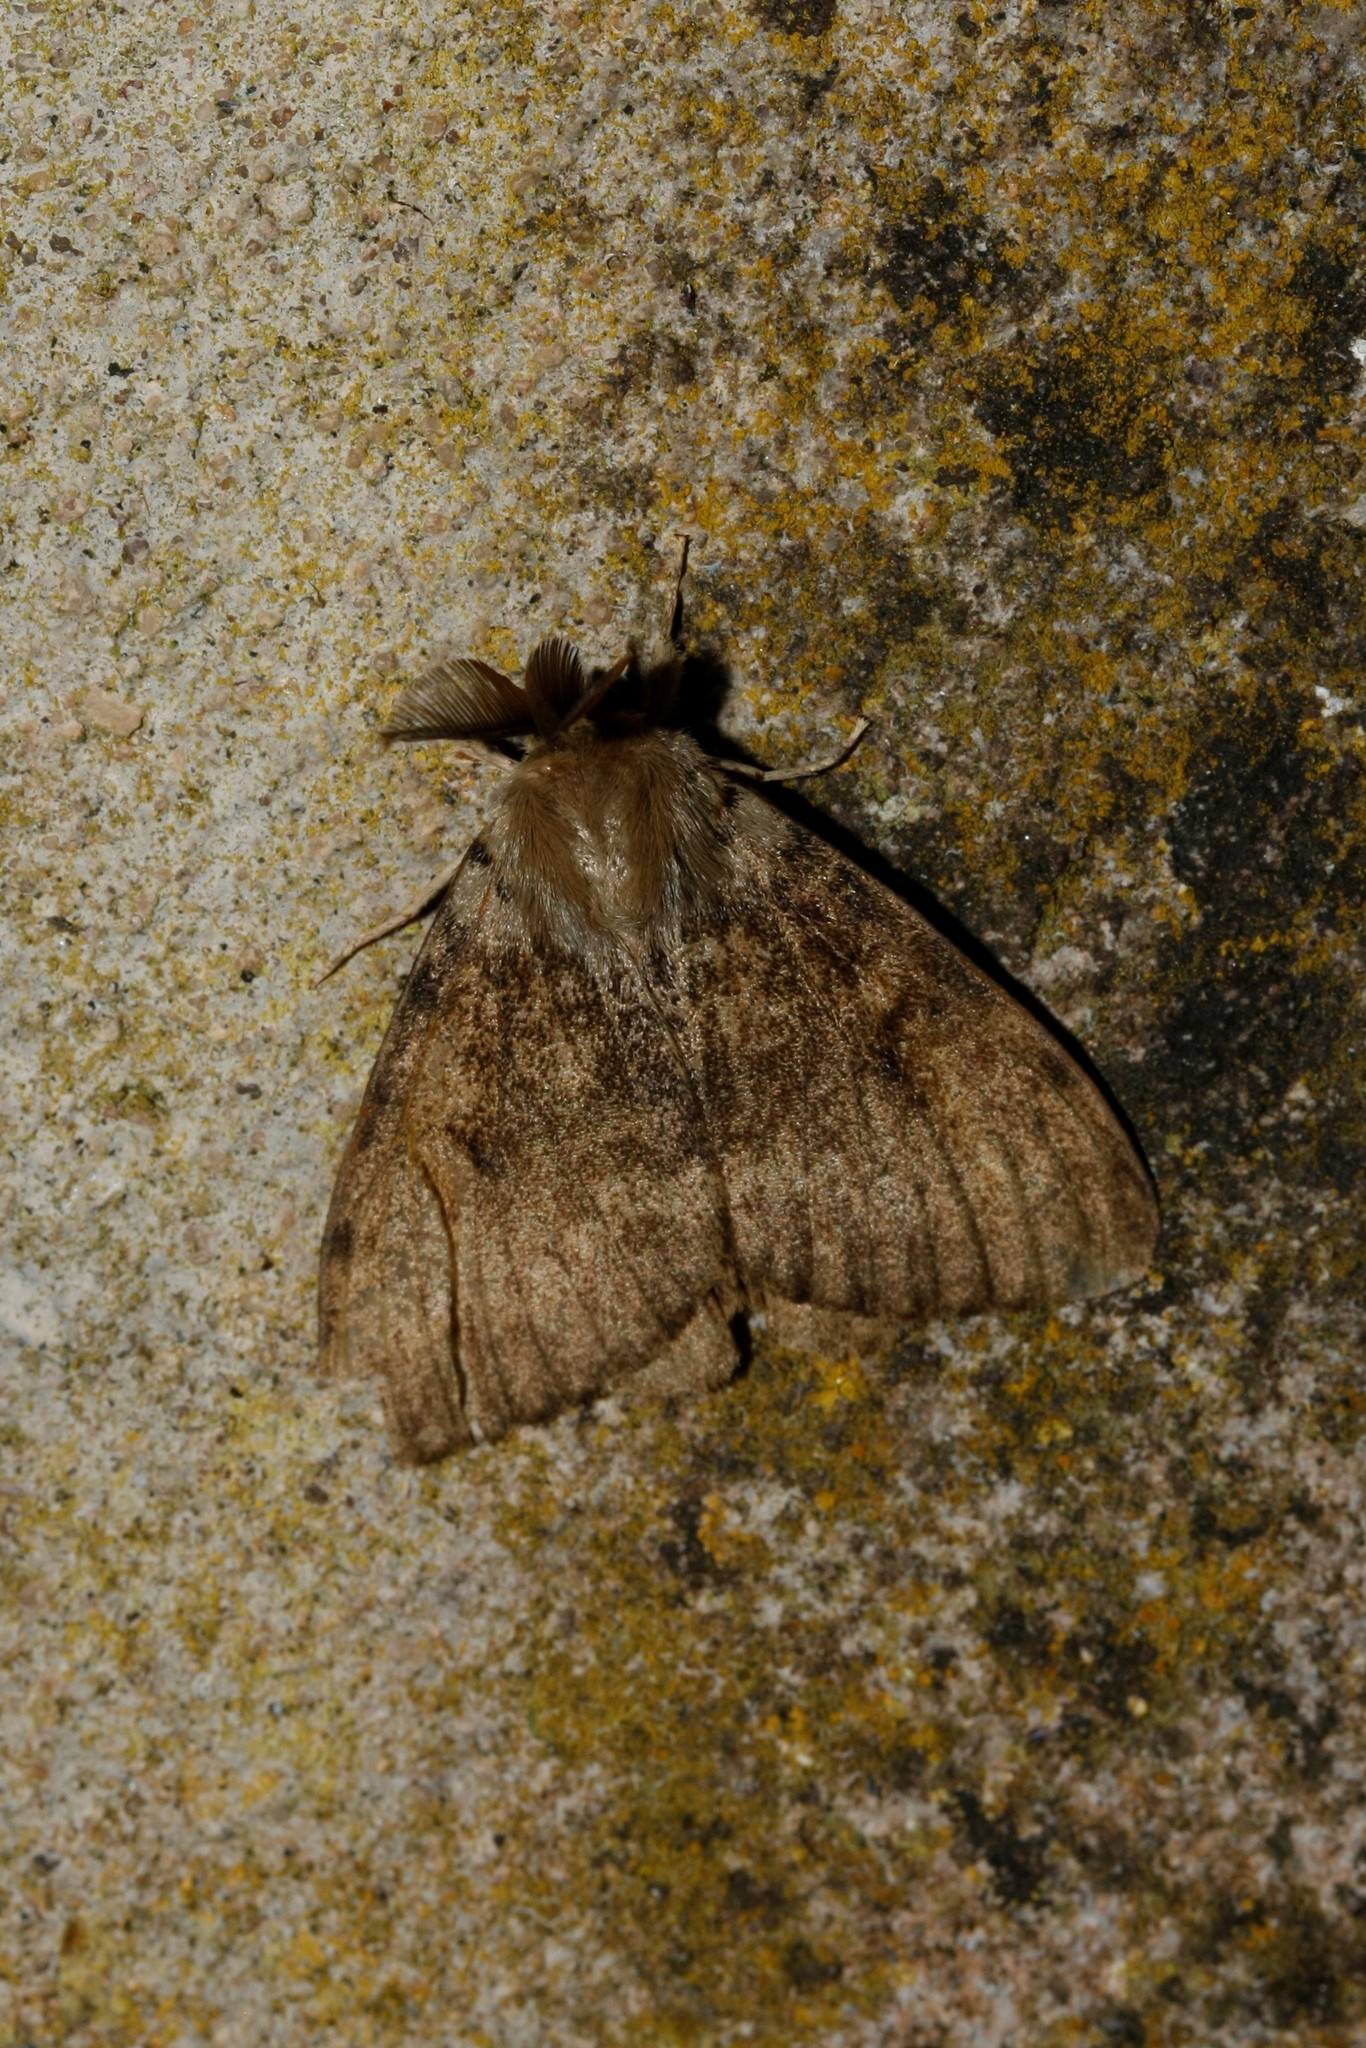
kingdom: Animalia
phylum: Arthropoda
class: Insecta
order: Lepidoptera
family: Erebidae
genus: Lymantria
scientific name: Lymantria dispar
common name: Gypsy moth
